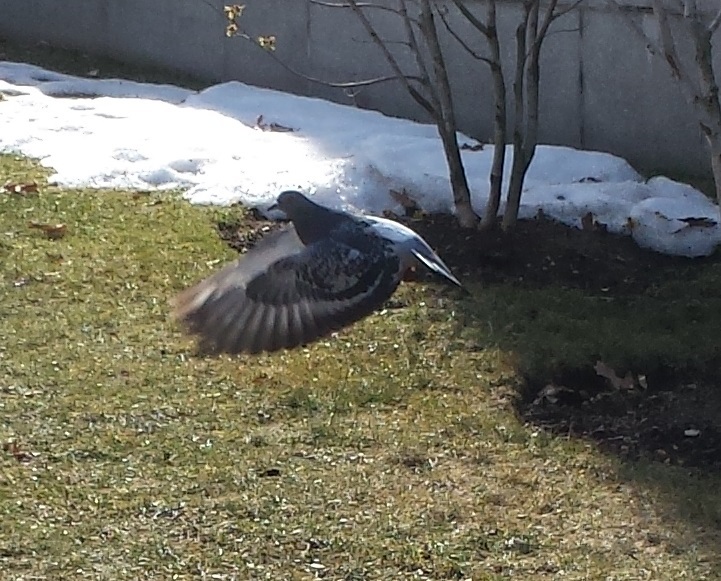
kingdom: Animalia
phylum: Chordata
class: Aves
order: Columbiformes
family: Columbidae
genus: Columba
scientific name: Columba livia
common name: Rock pigeon
